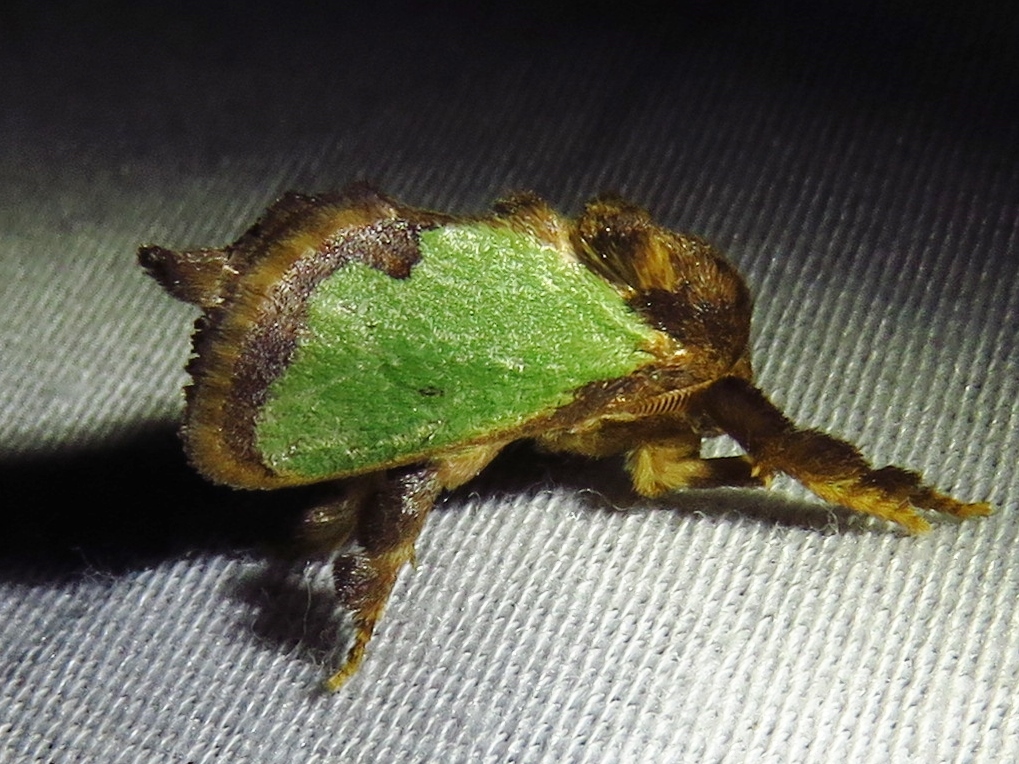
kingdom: Animalia
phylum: Arthropoda
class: Insecta
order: Lepidoptera
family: Limacodidae
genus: Euclea
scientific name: Euclea incisa
